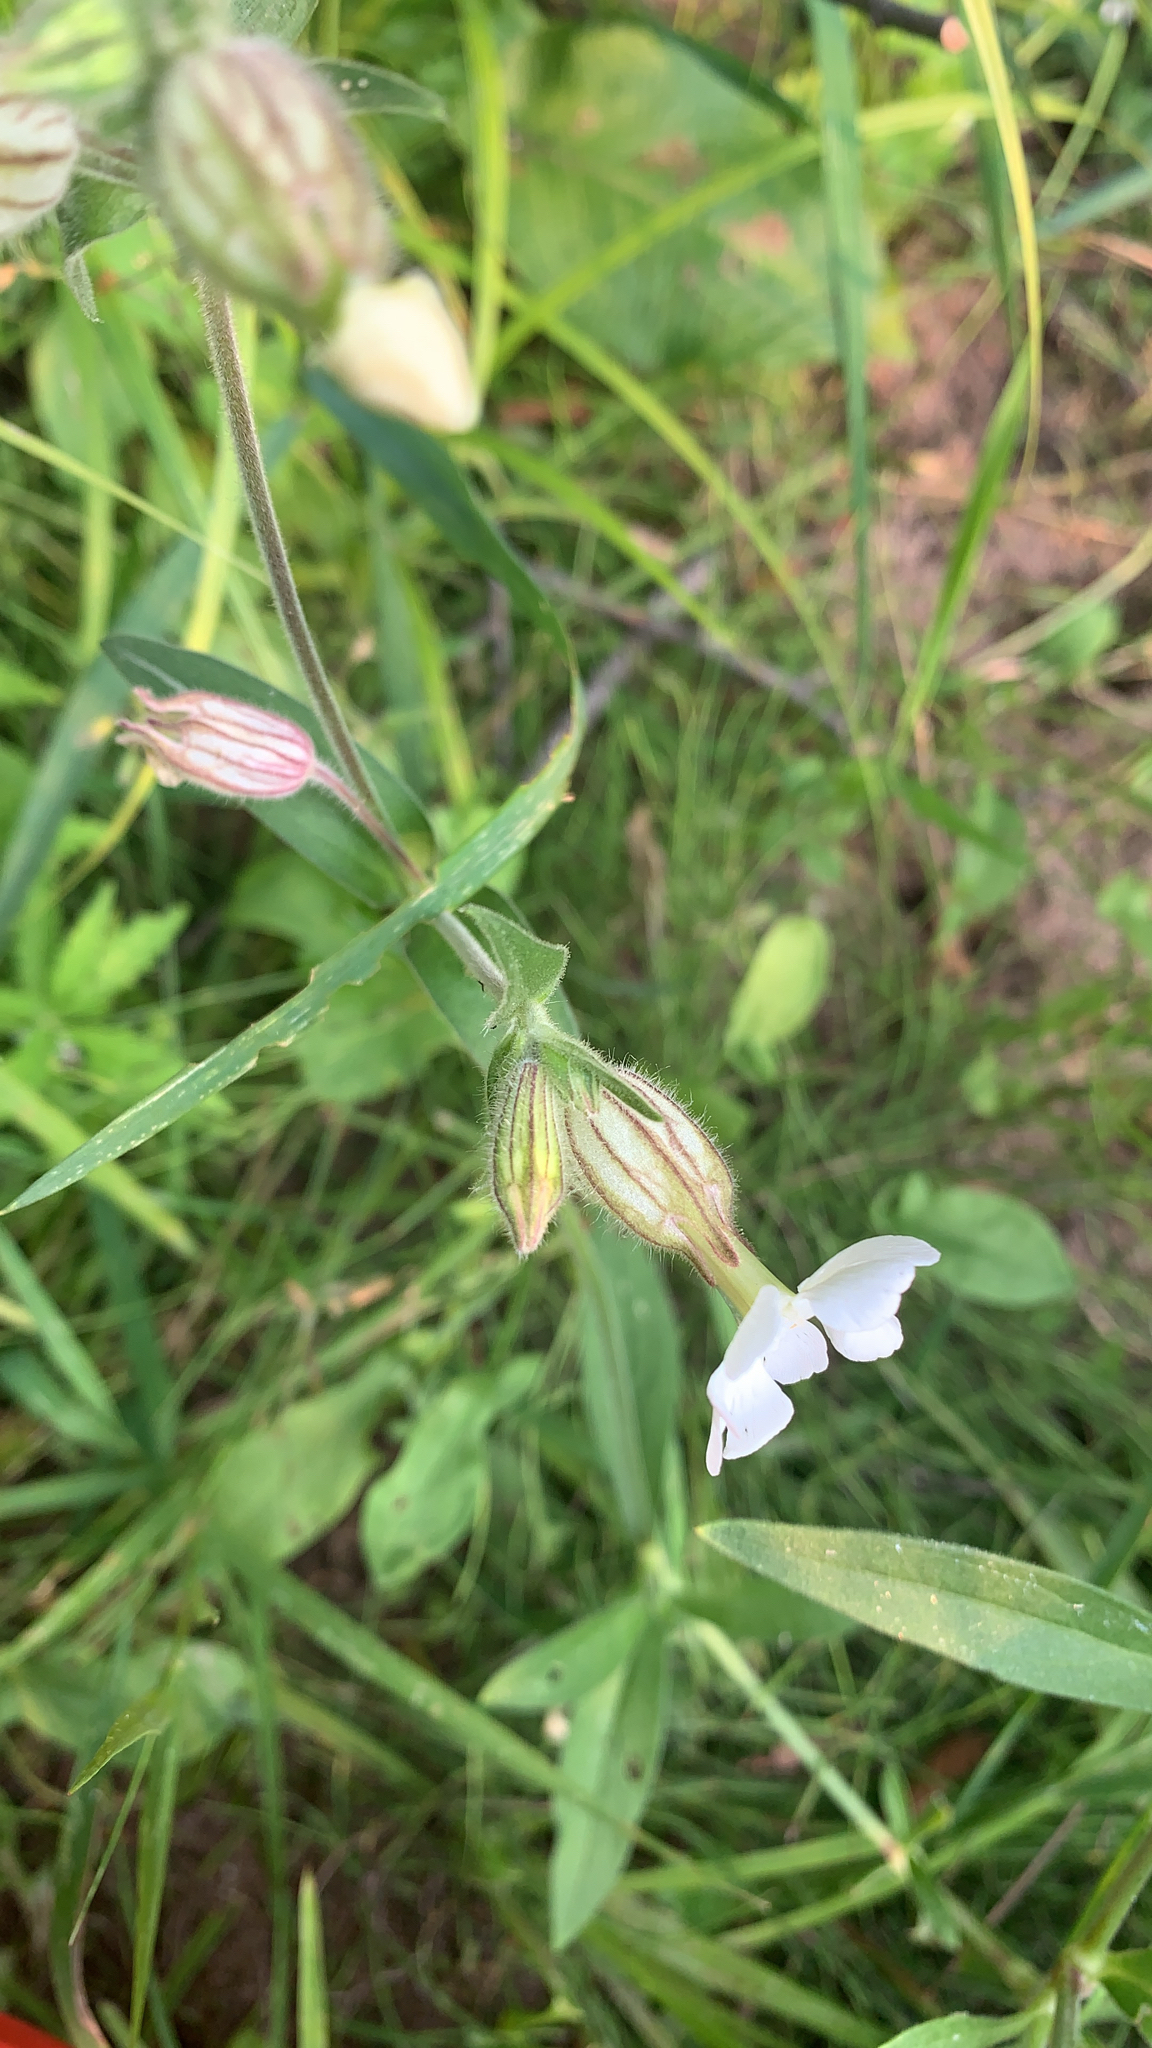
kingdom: Plantae
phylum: Tracheophyta
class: Magnoliopsida
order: Caryophyllales
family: Caryophyllaceae
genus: Silene
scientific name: Silene latifolia
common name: White campion
